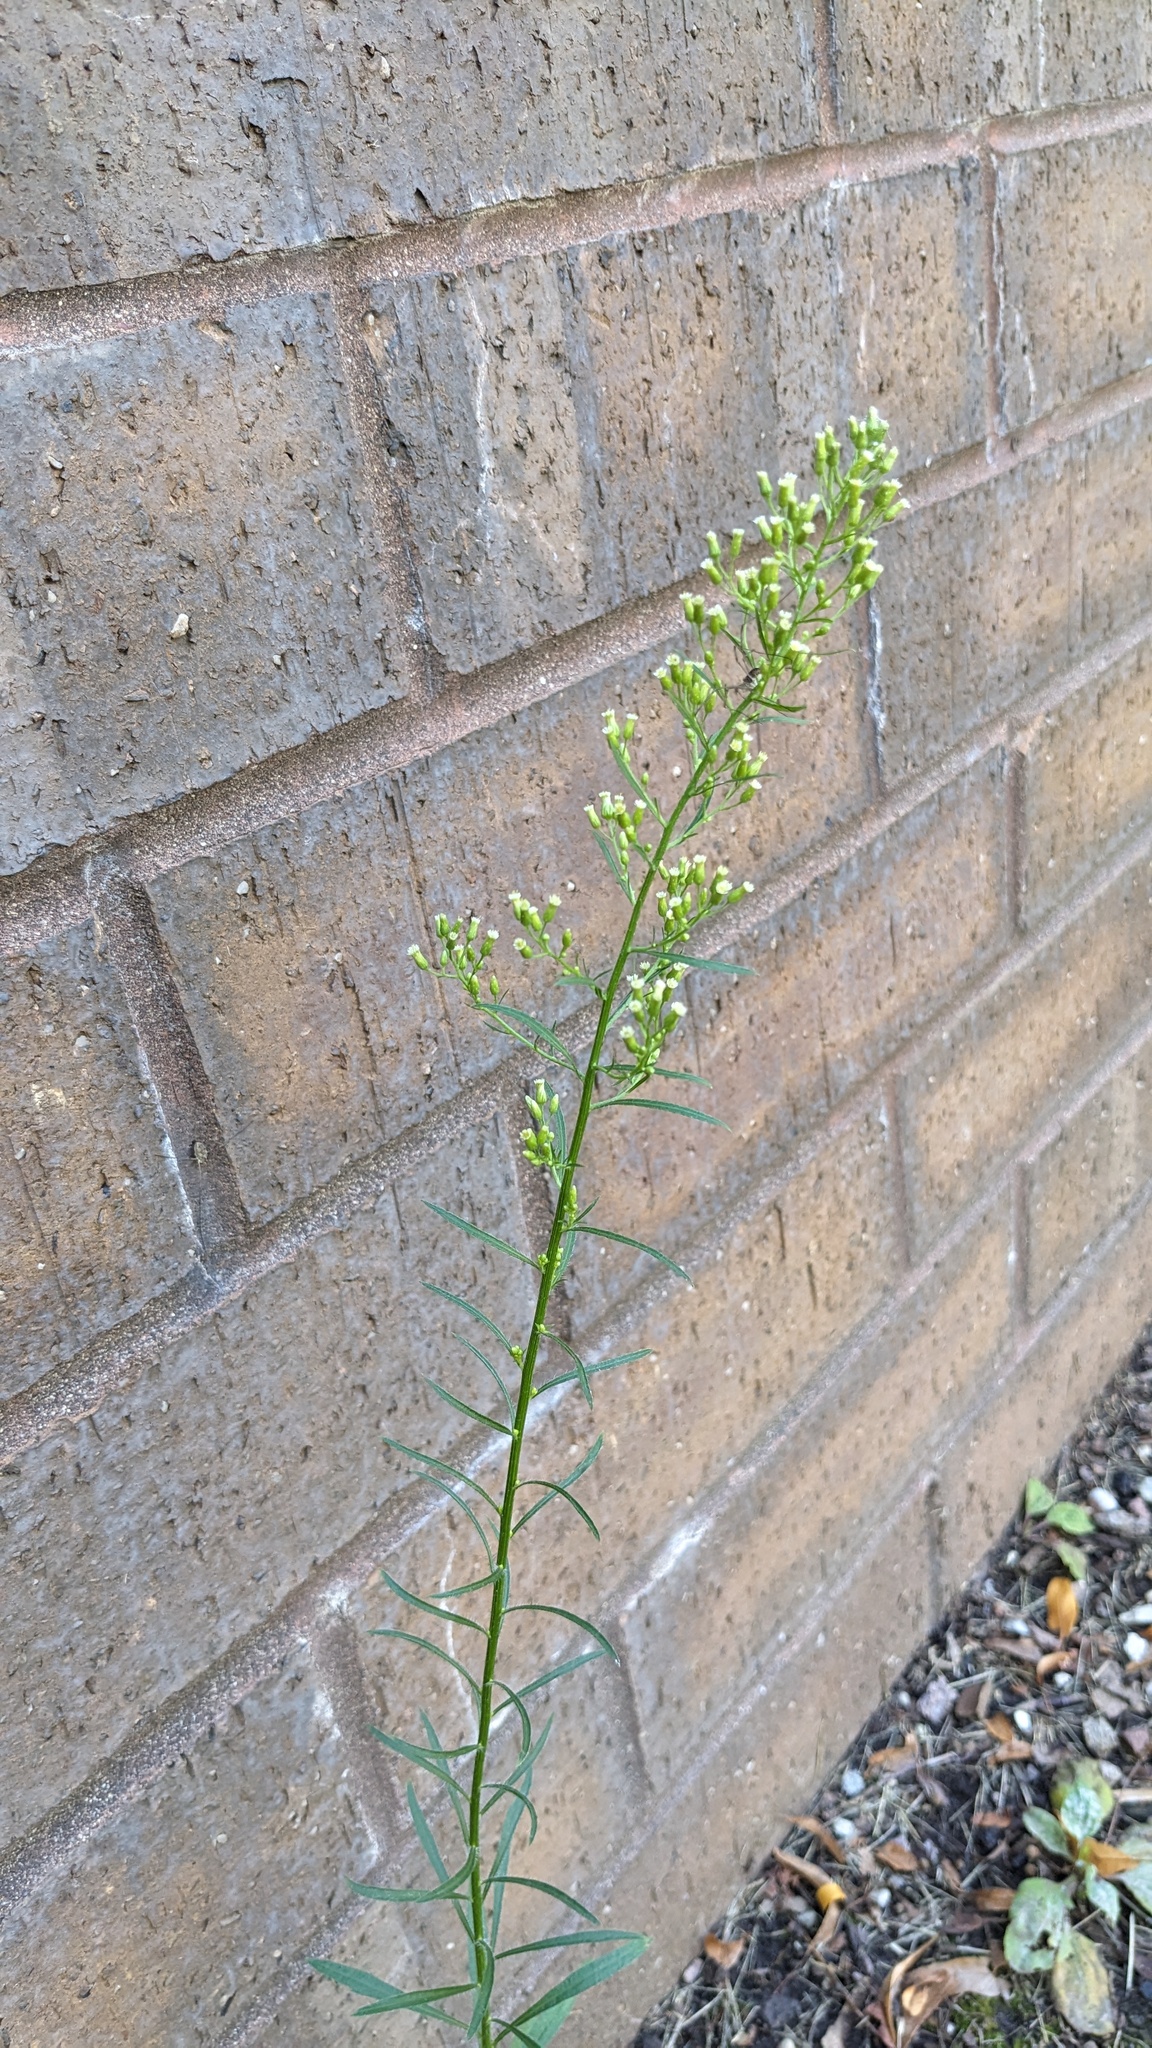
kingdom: Plantae
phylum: Tracheophyta
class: Magnoliopsida
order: Asterales
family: Asteraceae
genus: Erigeron
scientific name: Erigeron canadensis
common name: Canadian fleabane
